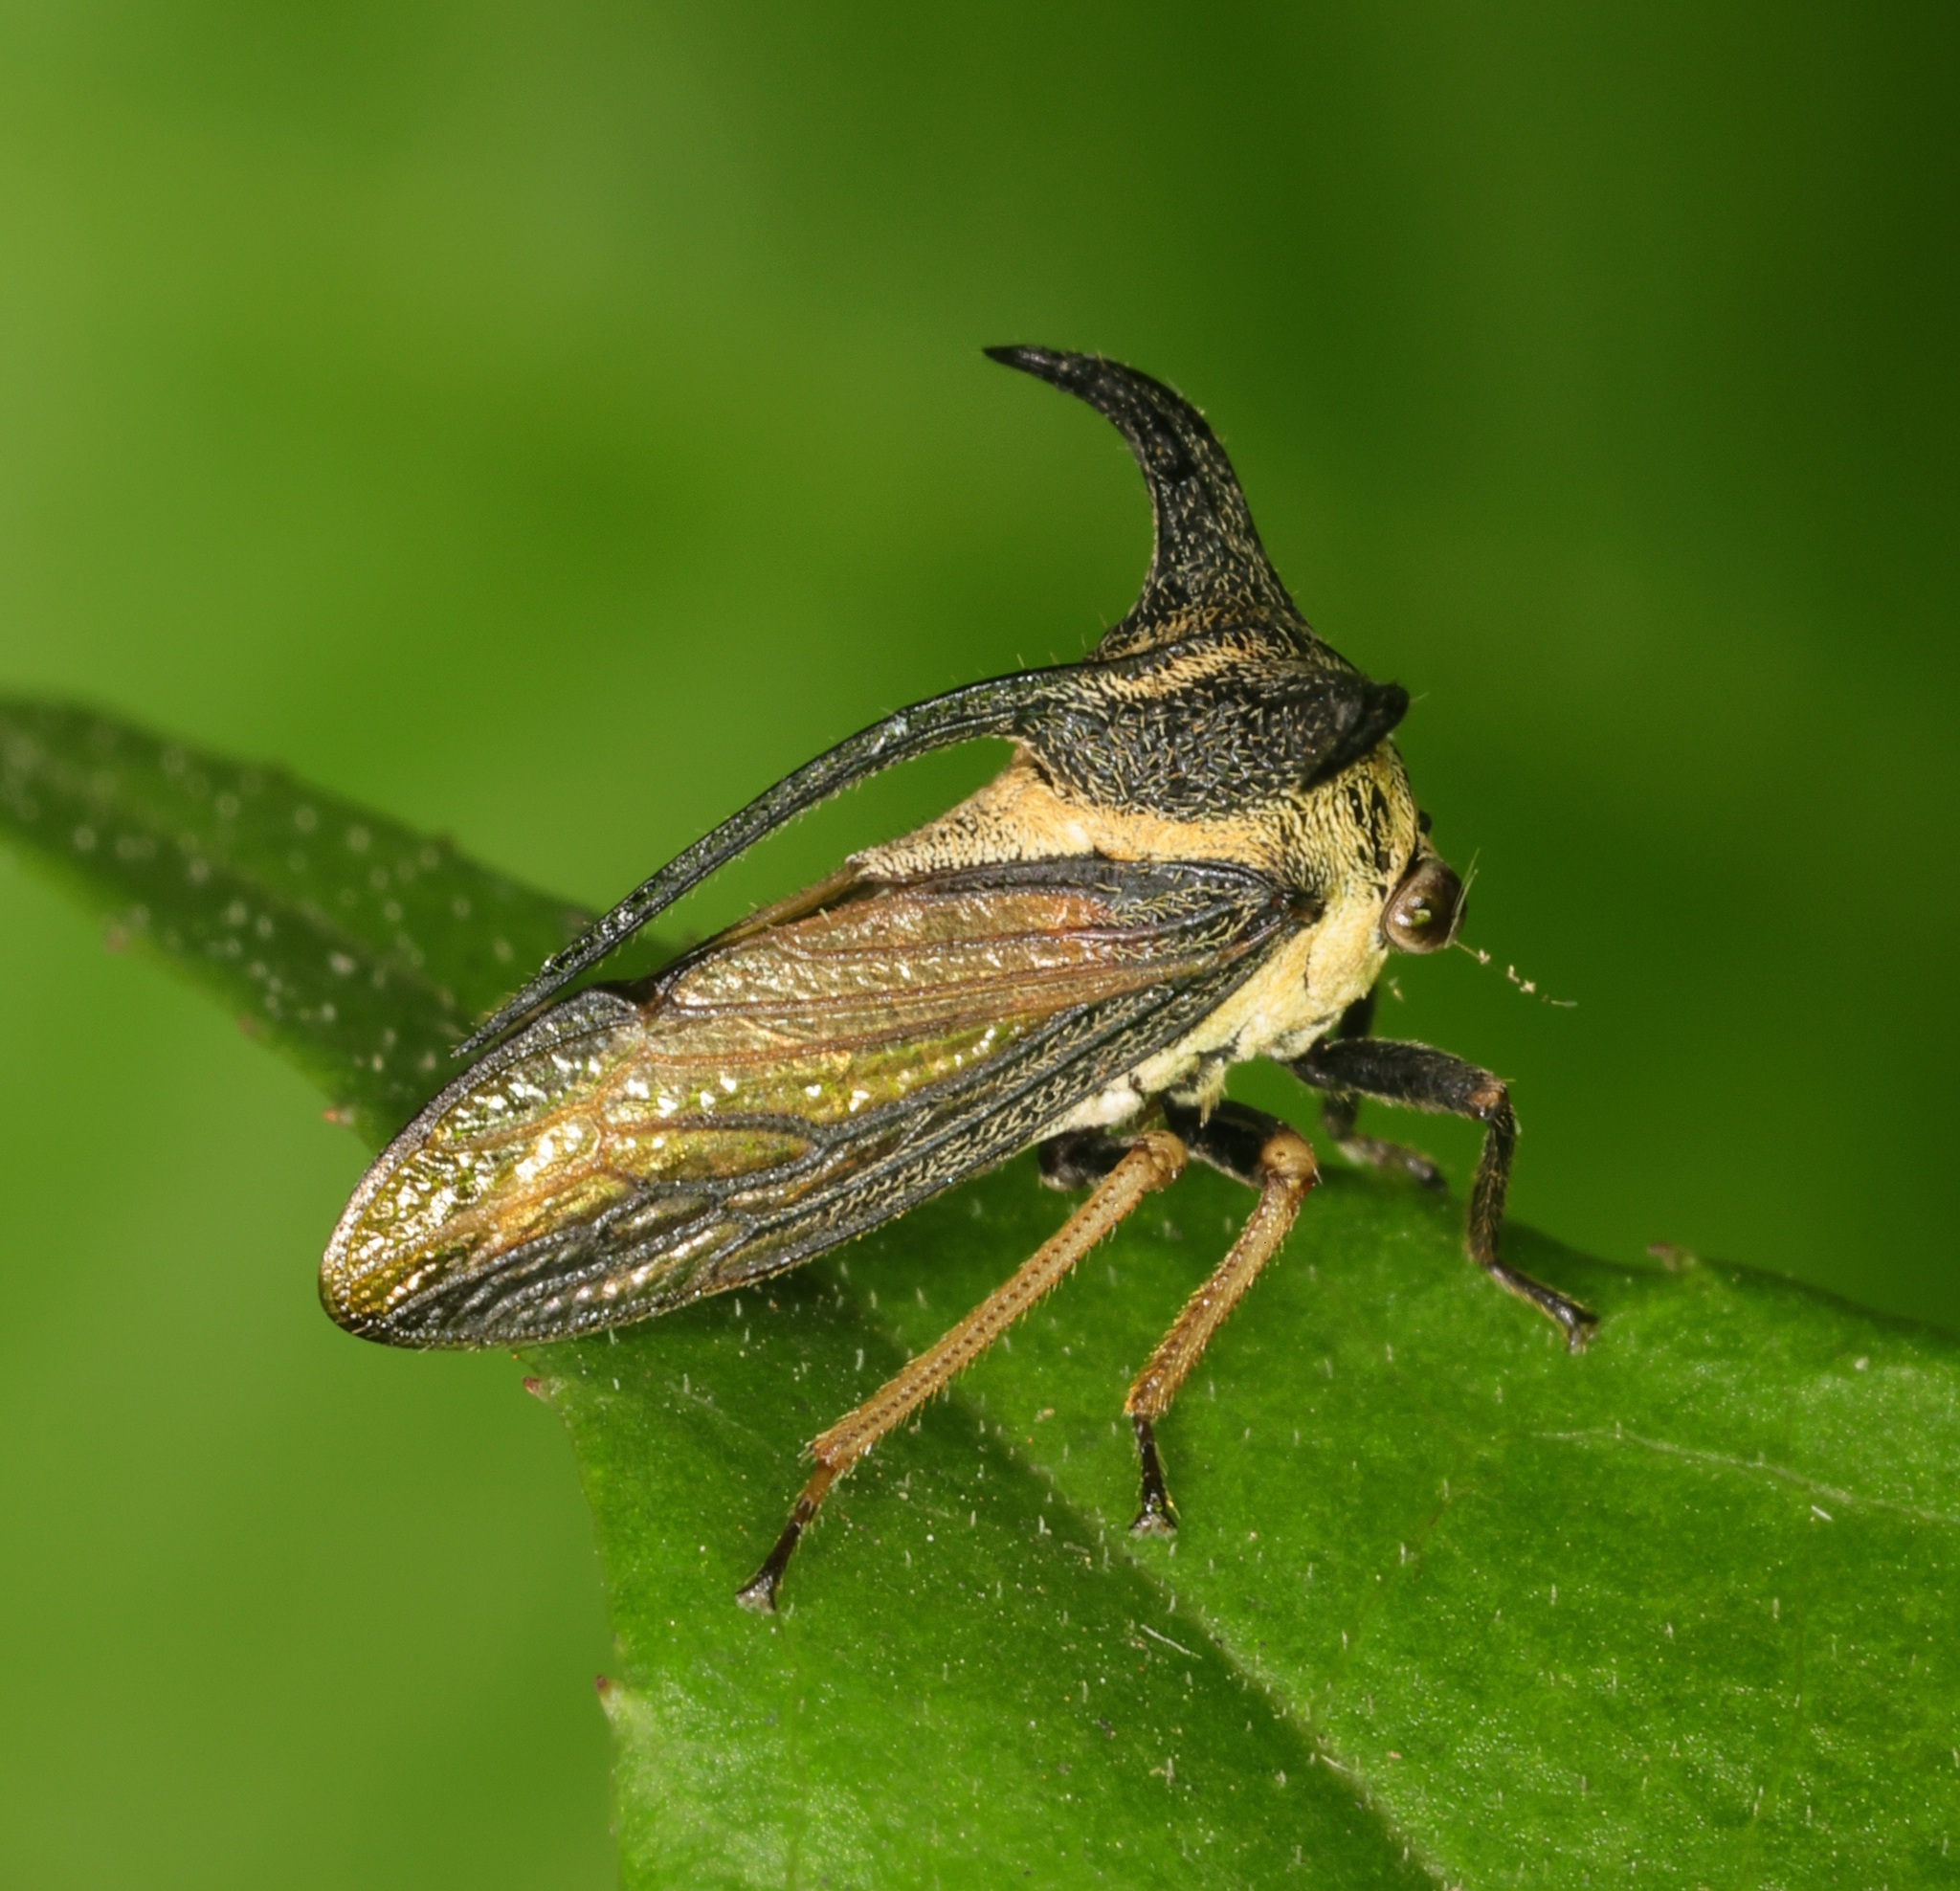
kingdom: Animalia
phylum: Arthropoda
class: Insecta
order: Hemiptera
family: Membracidae
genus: Leptocentrus
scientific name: Leptocentrus albolineatus
